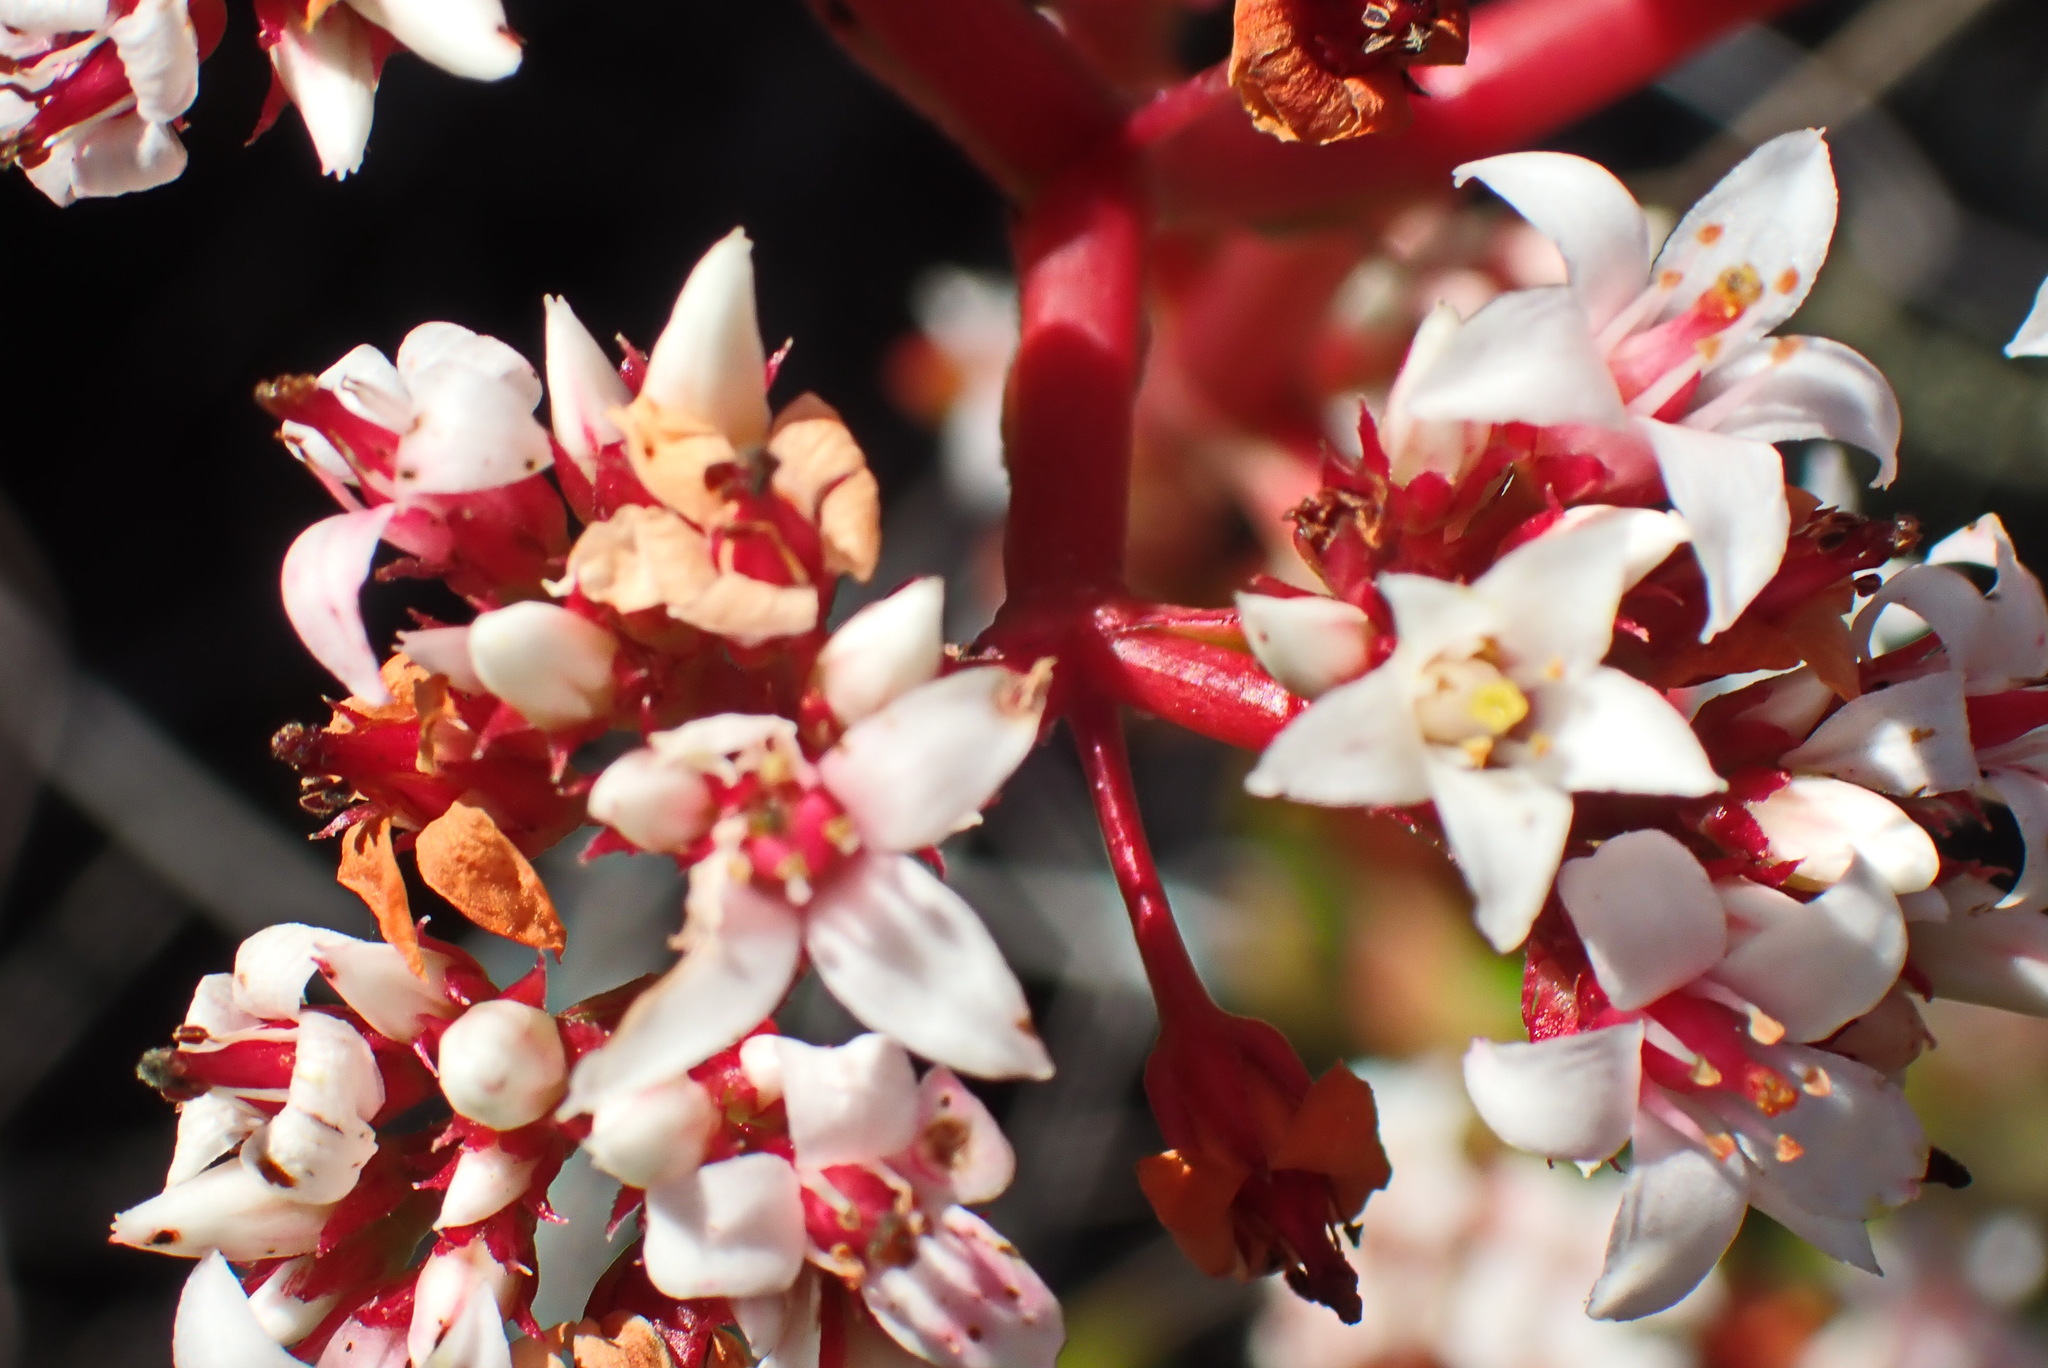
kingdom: Plantae
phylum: Tracheophyta
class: Magnoliopsida
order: Saxifragales
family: Crassulaceae
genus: Crassula
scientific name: Crassula rubricaulis
